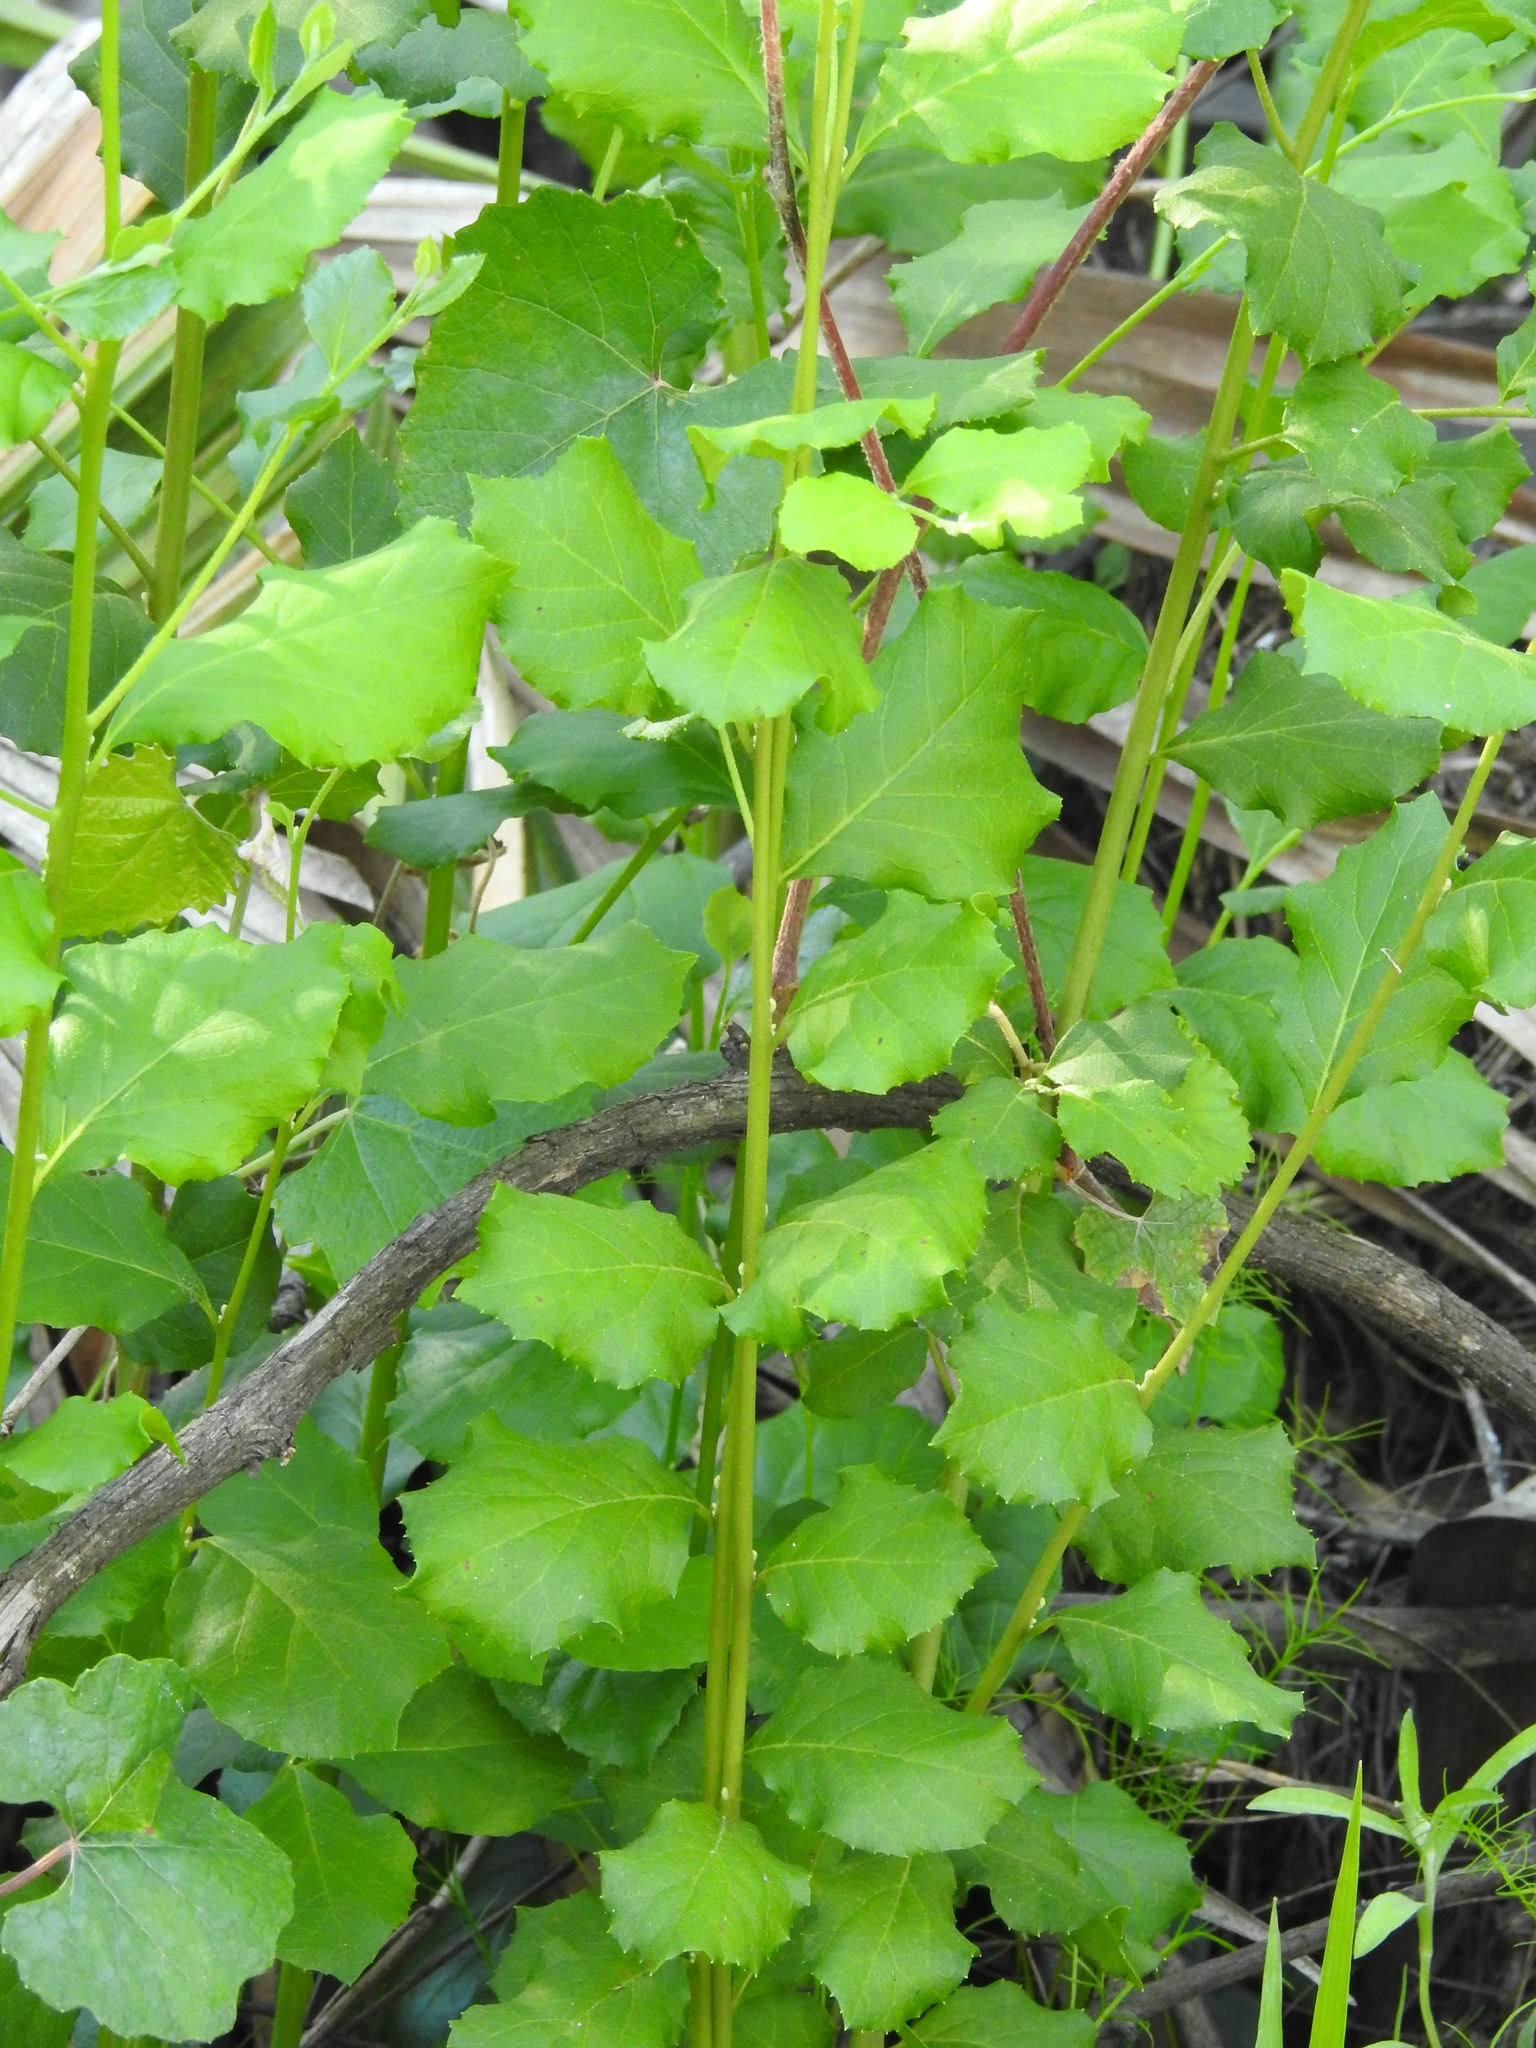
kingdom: Plantae
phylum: Tracheophyta
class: Magnoliopsida
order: Asterales
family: Asteraceae
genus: Baccharis
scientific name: Baccharis halimifolia
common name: Eastern baccharis
